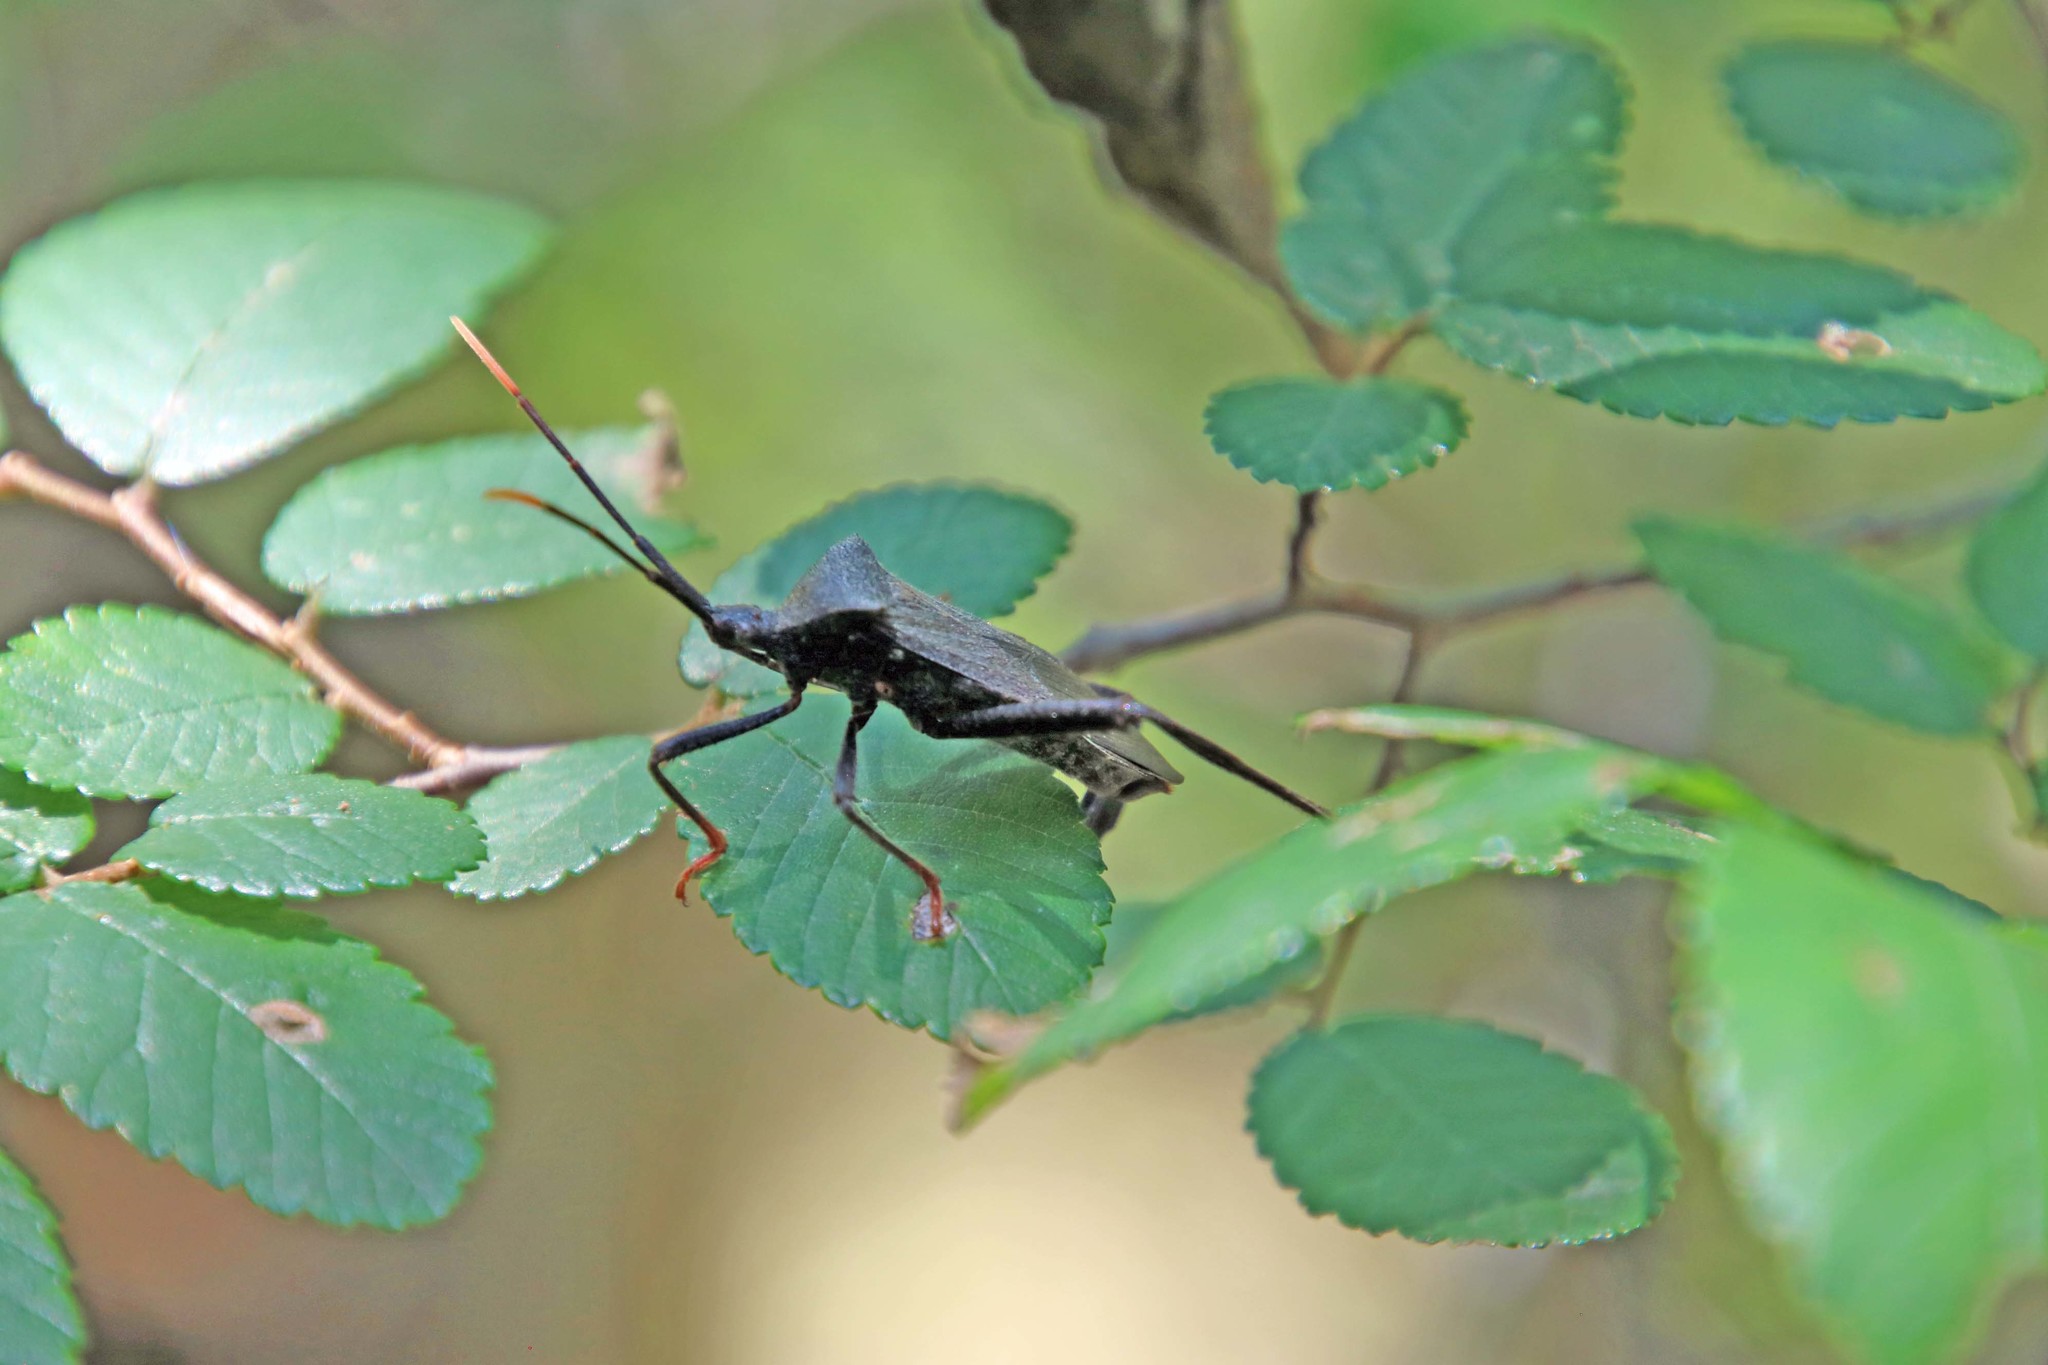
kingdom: Animalia
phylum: Arthropoda
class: Insecta
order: Hemiptera
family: Coreidae
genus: Acanthocephala
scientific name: Acanthocephala terminalis
